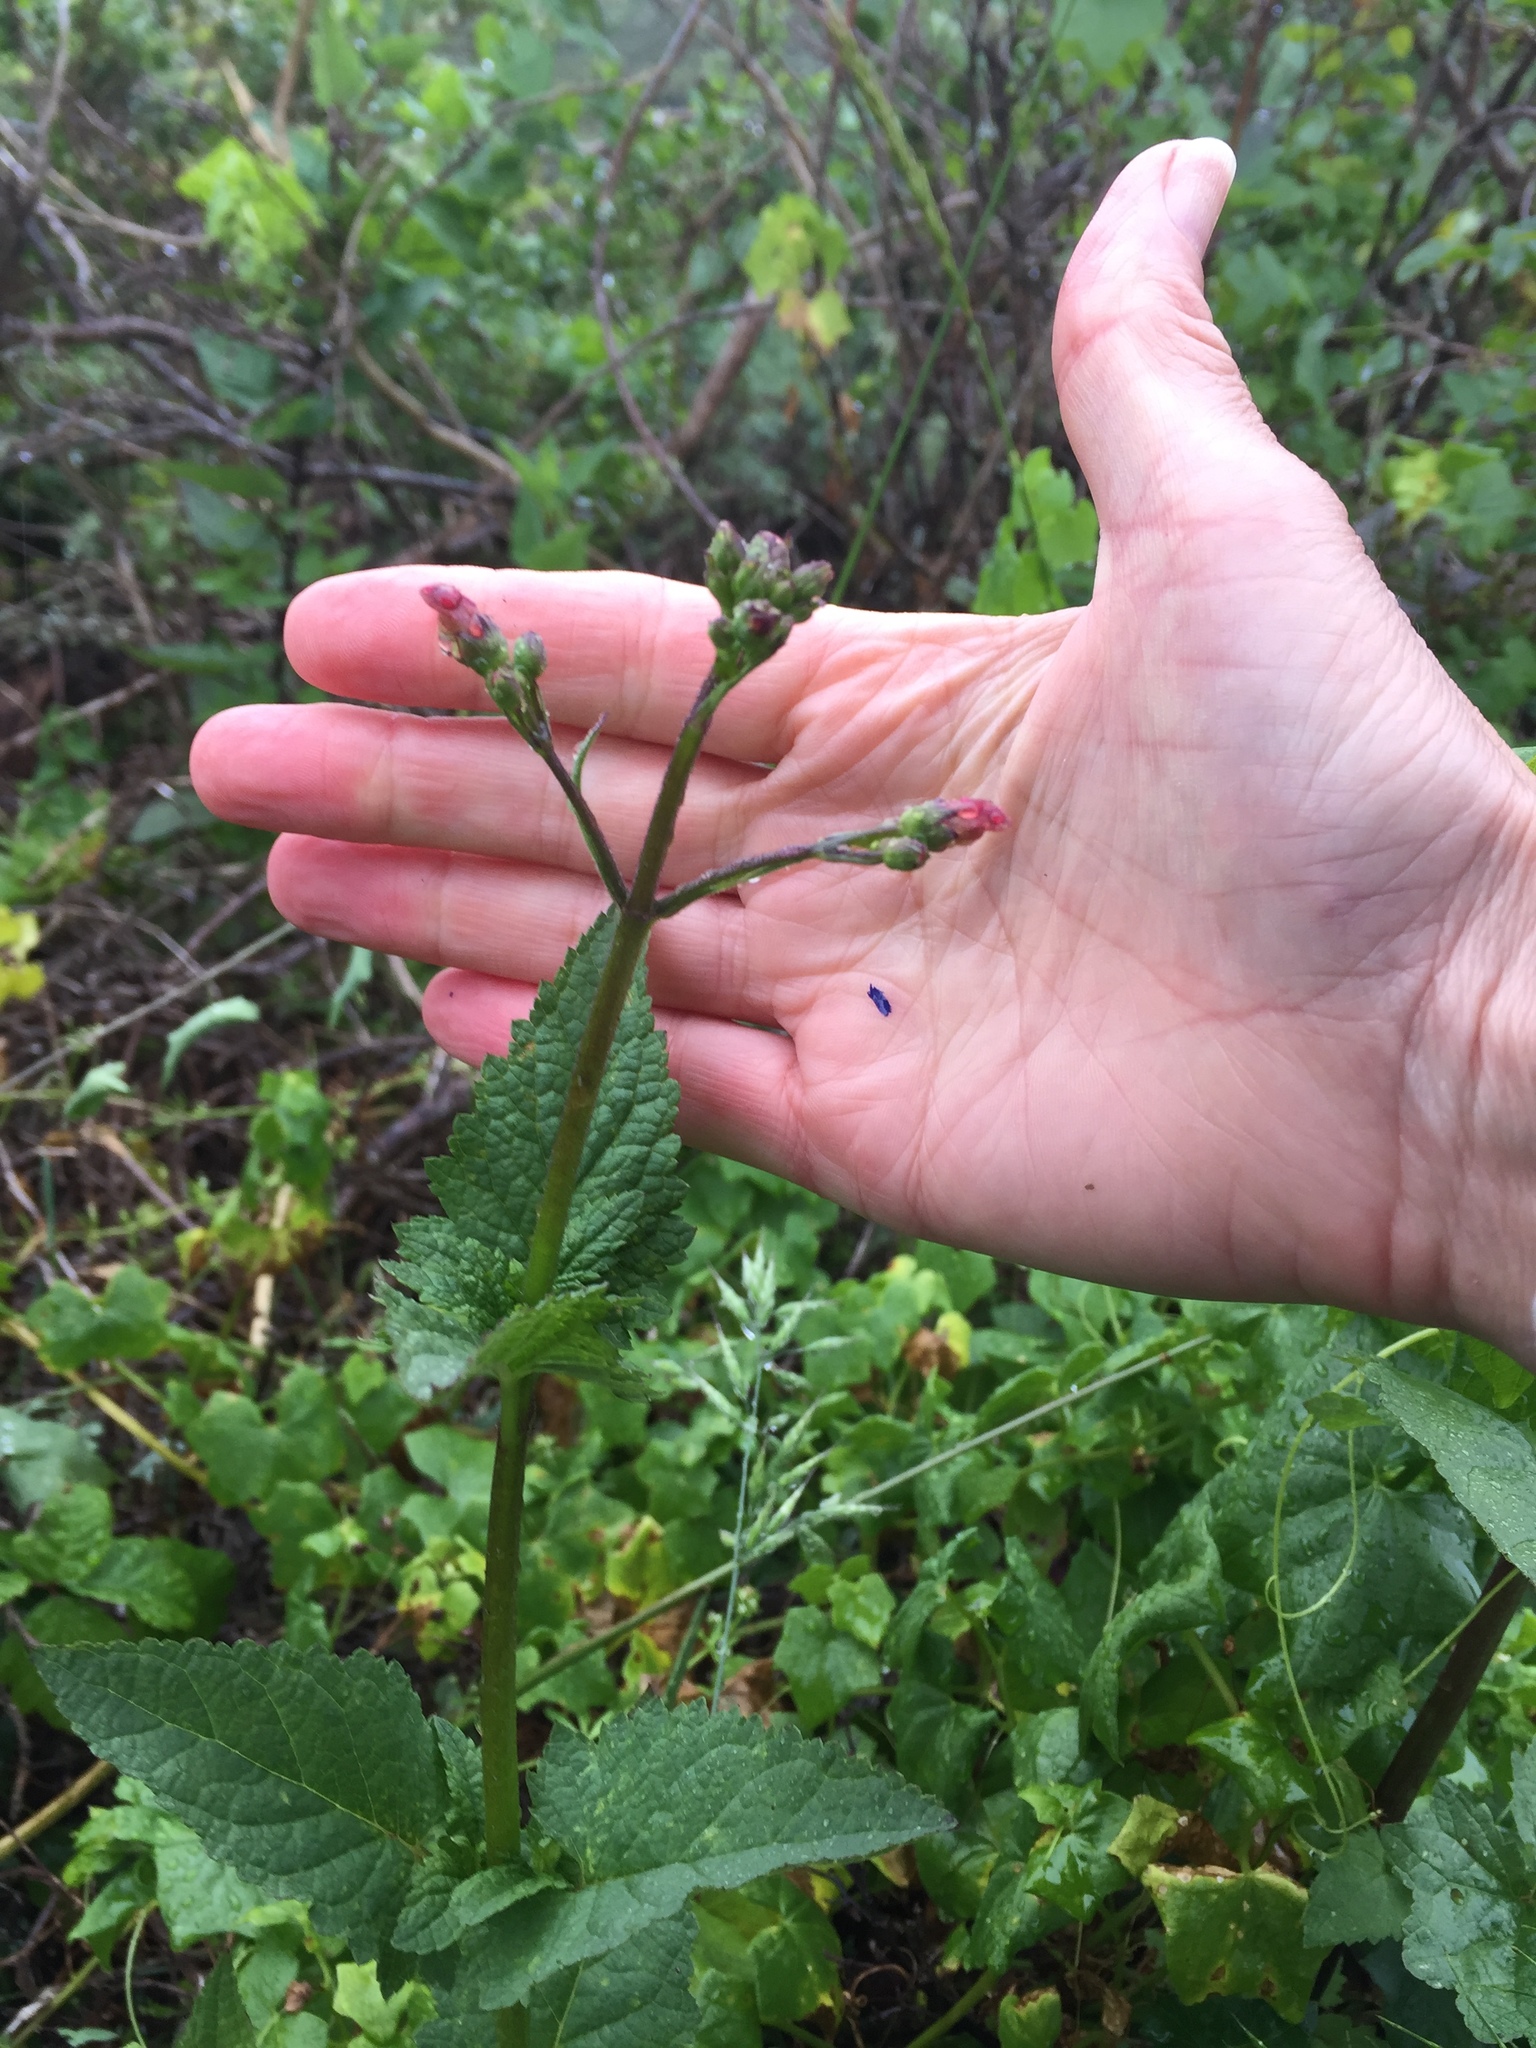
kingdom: Plantae
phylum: Tracheophyta
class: Magnoliopsida
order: Lamiales
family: Scrophulariaceae
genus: Scrophularia
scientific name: Scrophularia californica
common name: California figwort
